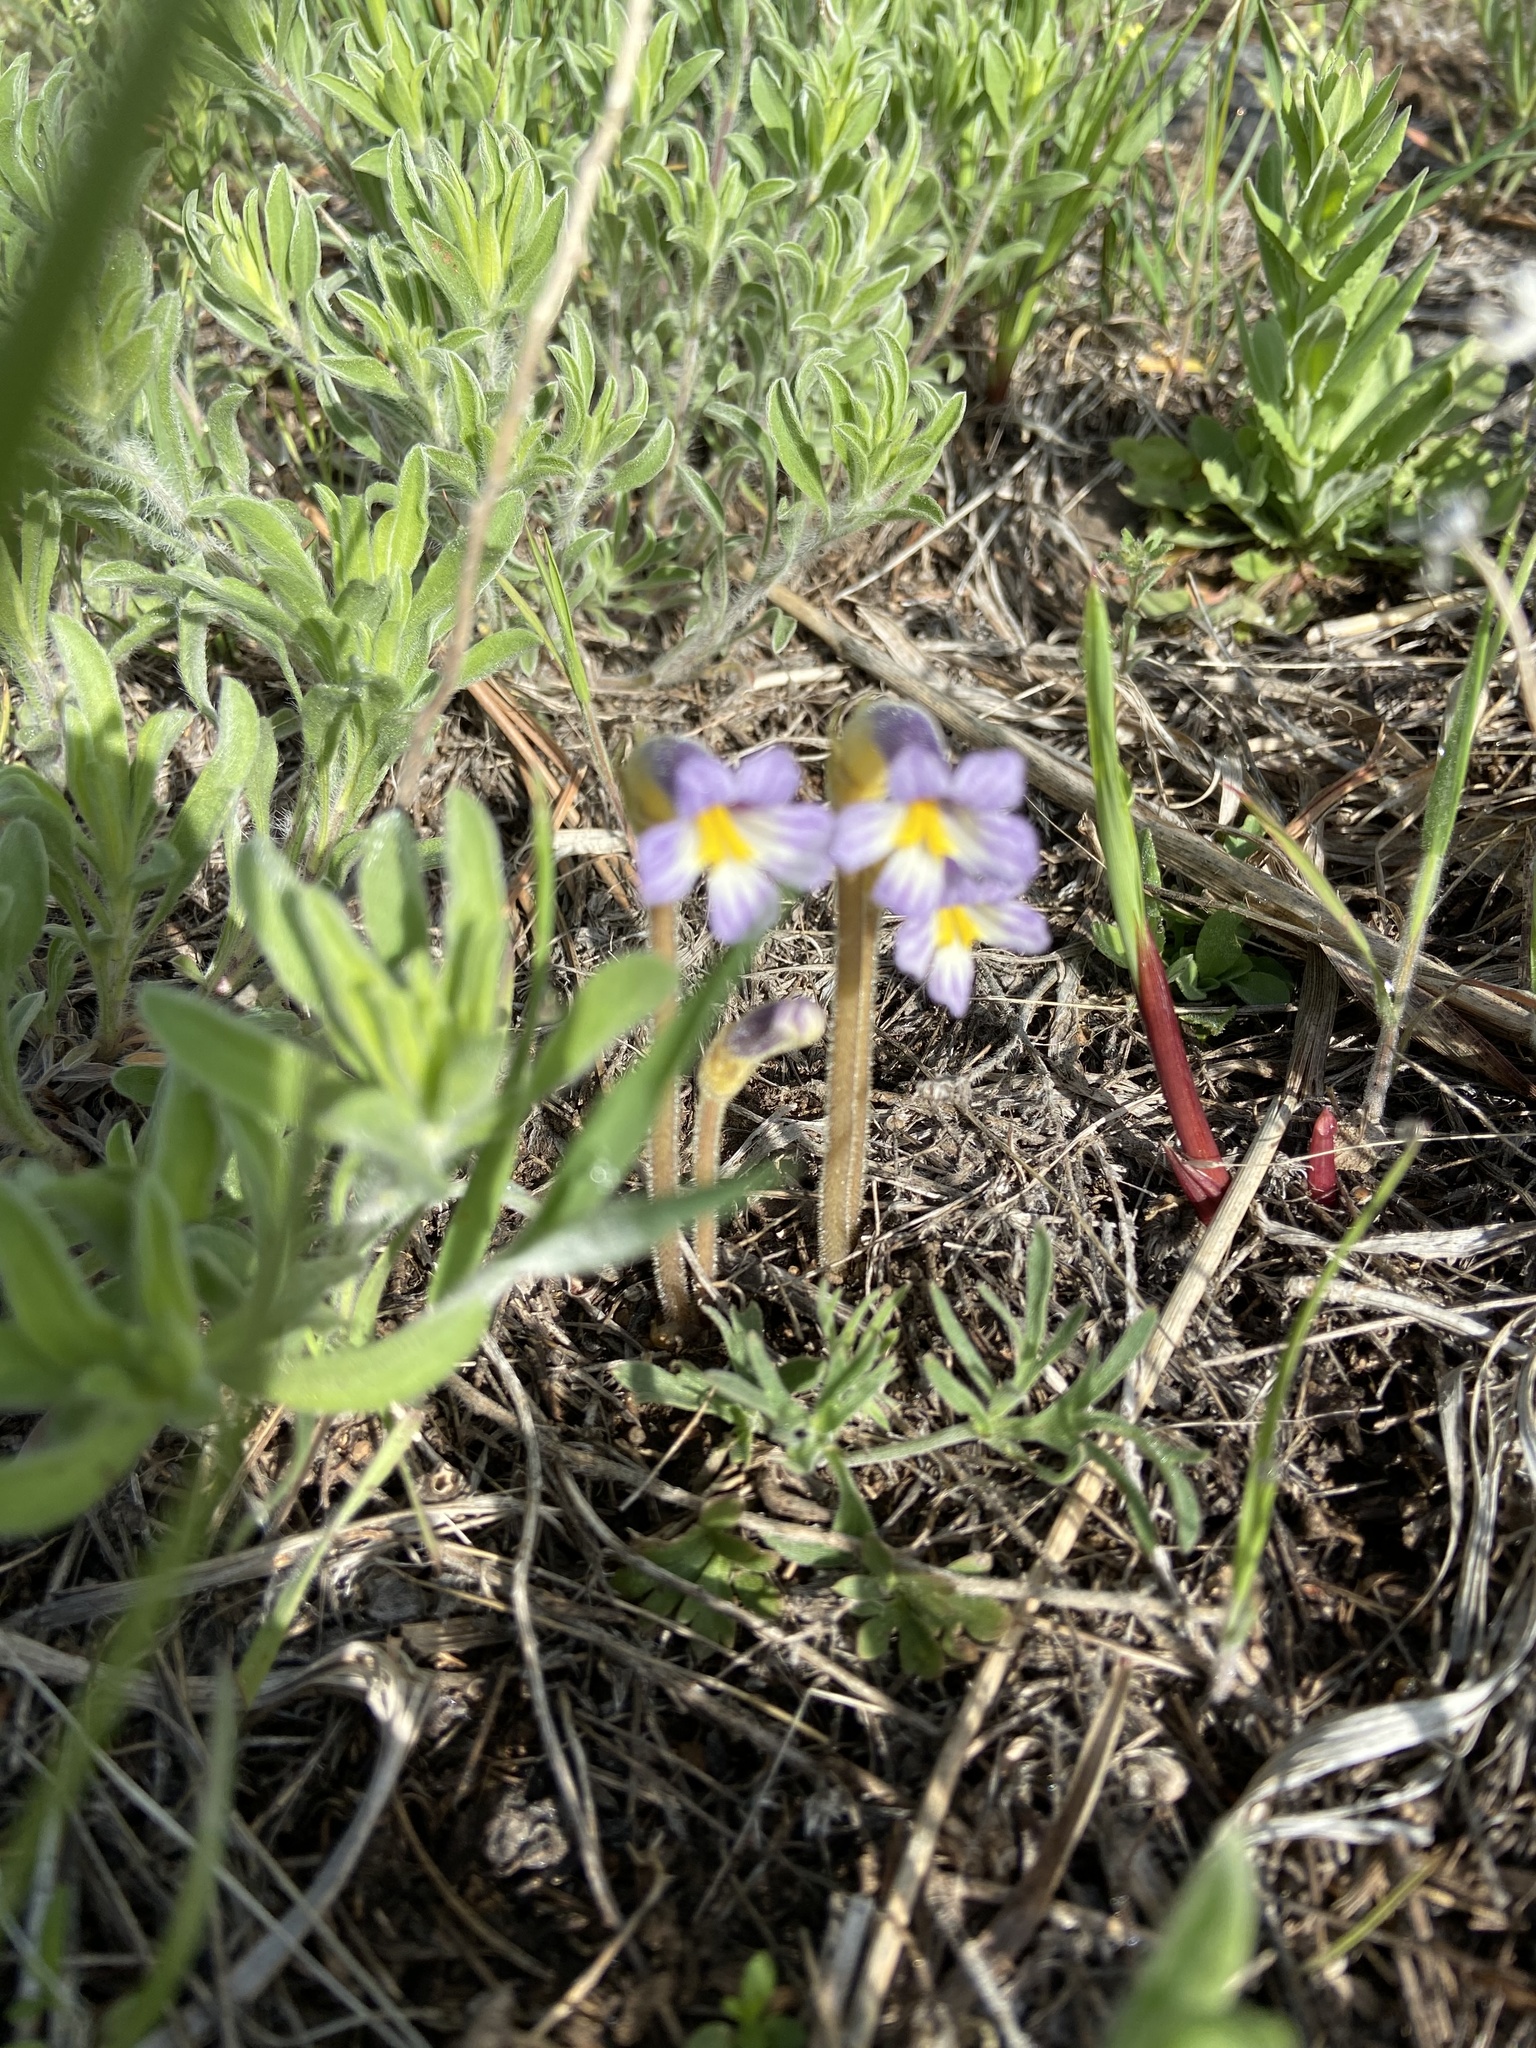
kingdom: Plantae
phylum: Tracheophyta
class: Magnoliopsida
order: Lamiales
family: Orobanchaceae
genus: Aphyllon
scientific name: Aphyllon uniflorum
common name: One-flowered broomrape
